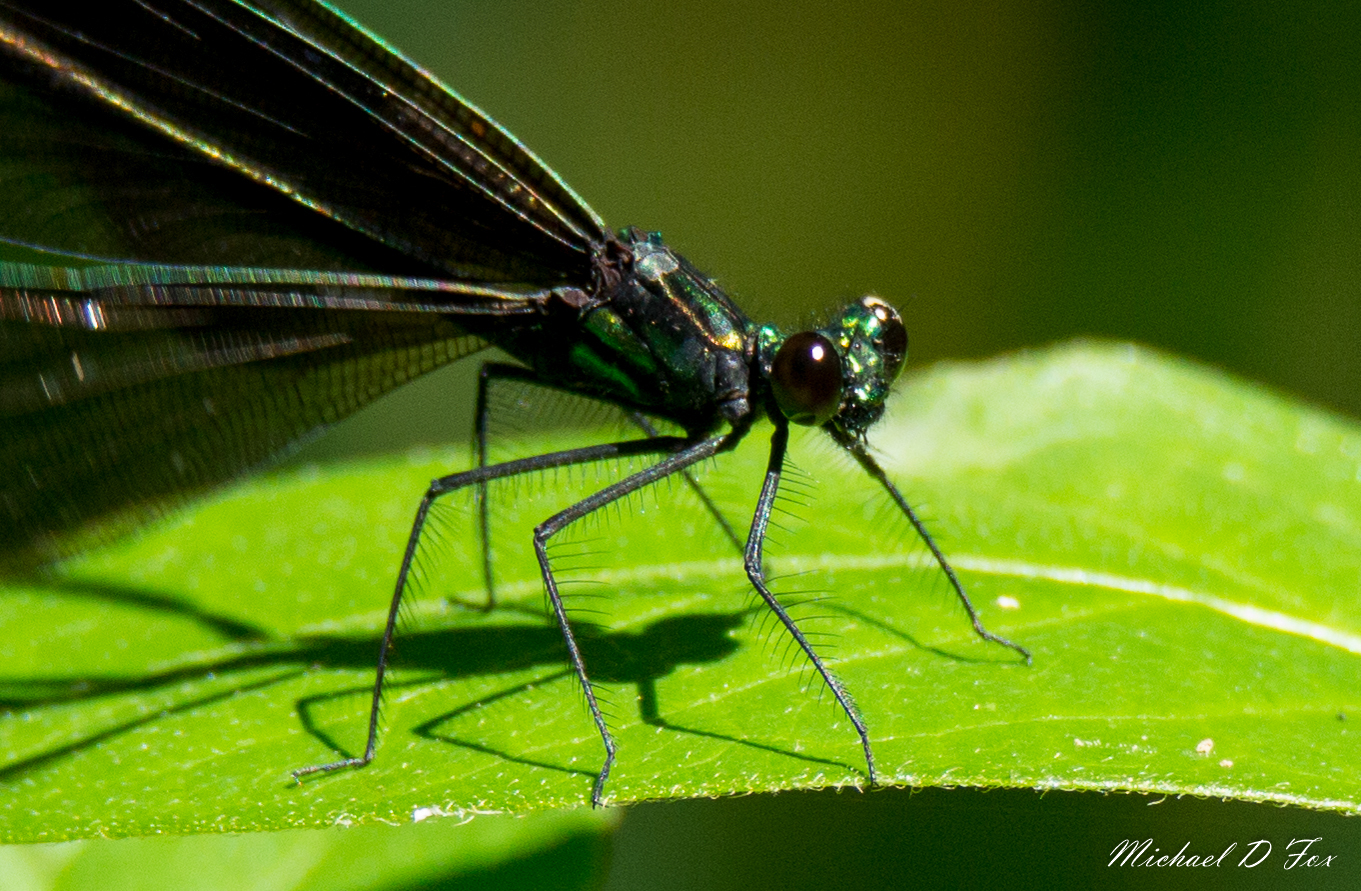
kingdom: Animalia
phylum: Arthropoda
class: Insecta
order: Odonata
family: Calopterygidae
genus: Calopteryx
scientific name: Calopteryx maculata
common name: Ebony jewelwing
